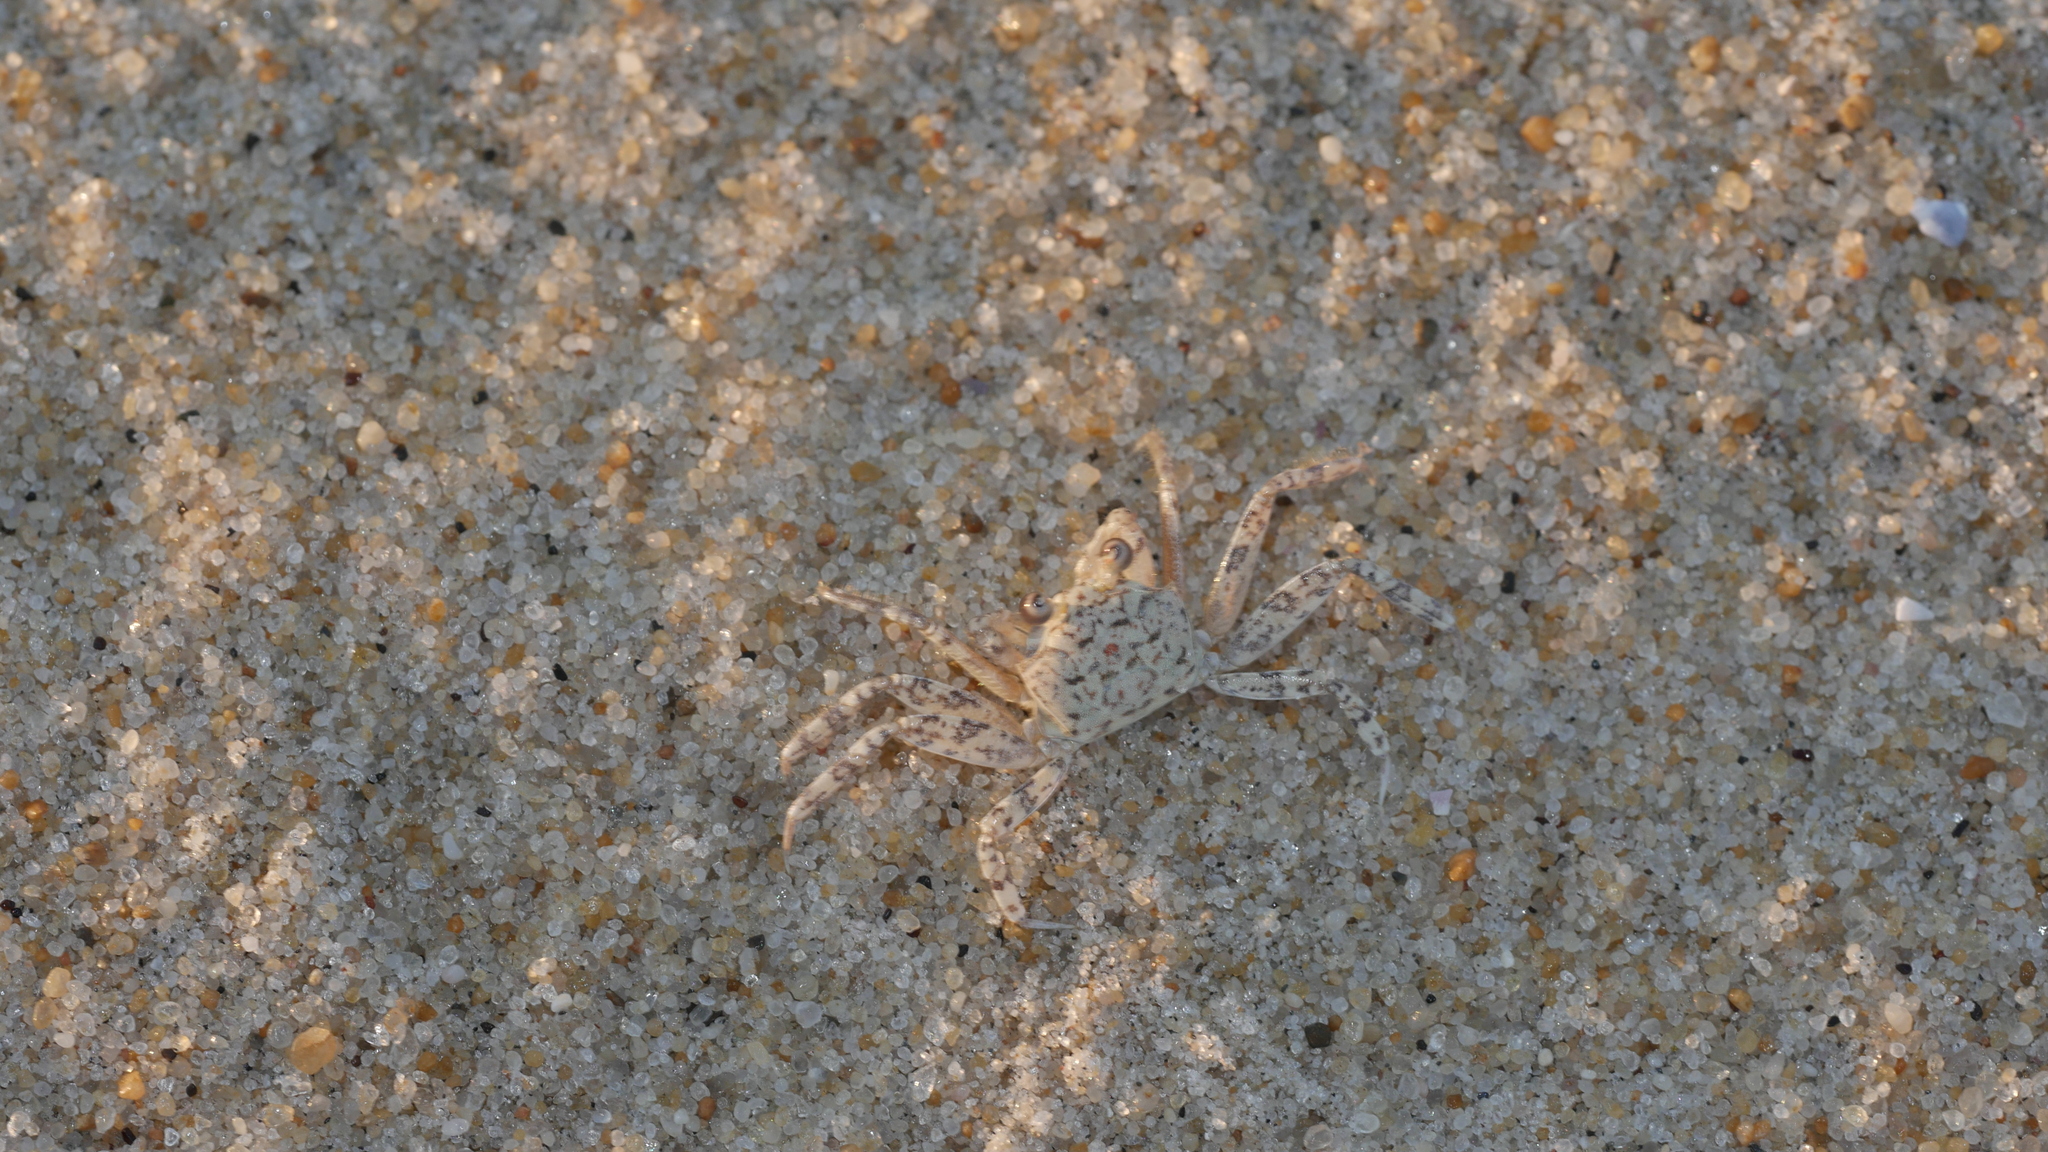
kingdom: Animalia
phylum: Arthropoda
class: Malacostraca
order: Decapoda
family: Ocypodidae
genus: Ocypode
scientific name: Ocypode quadrata
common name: Ghost crab
